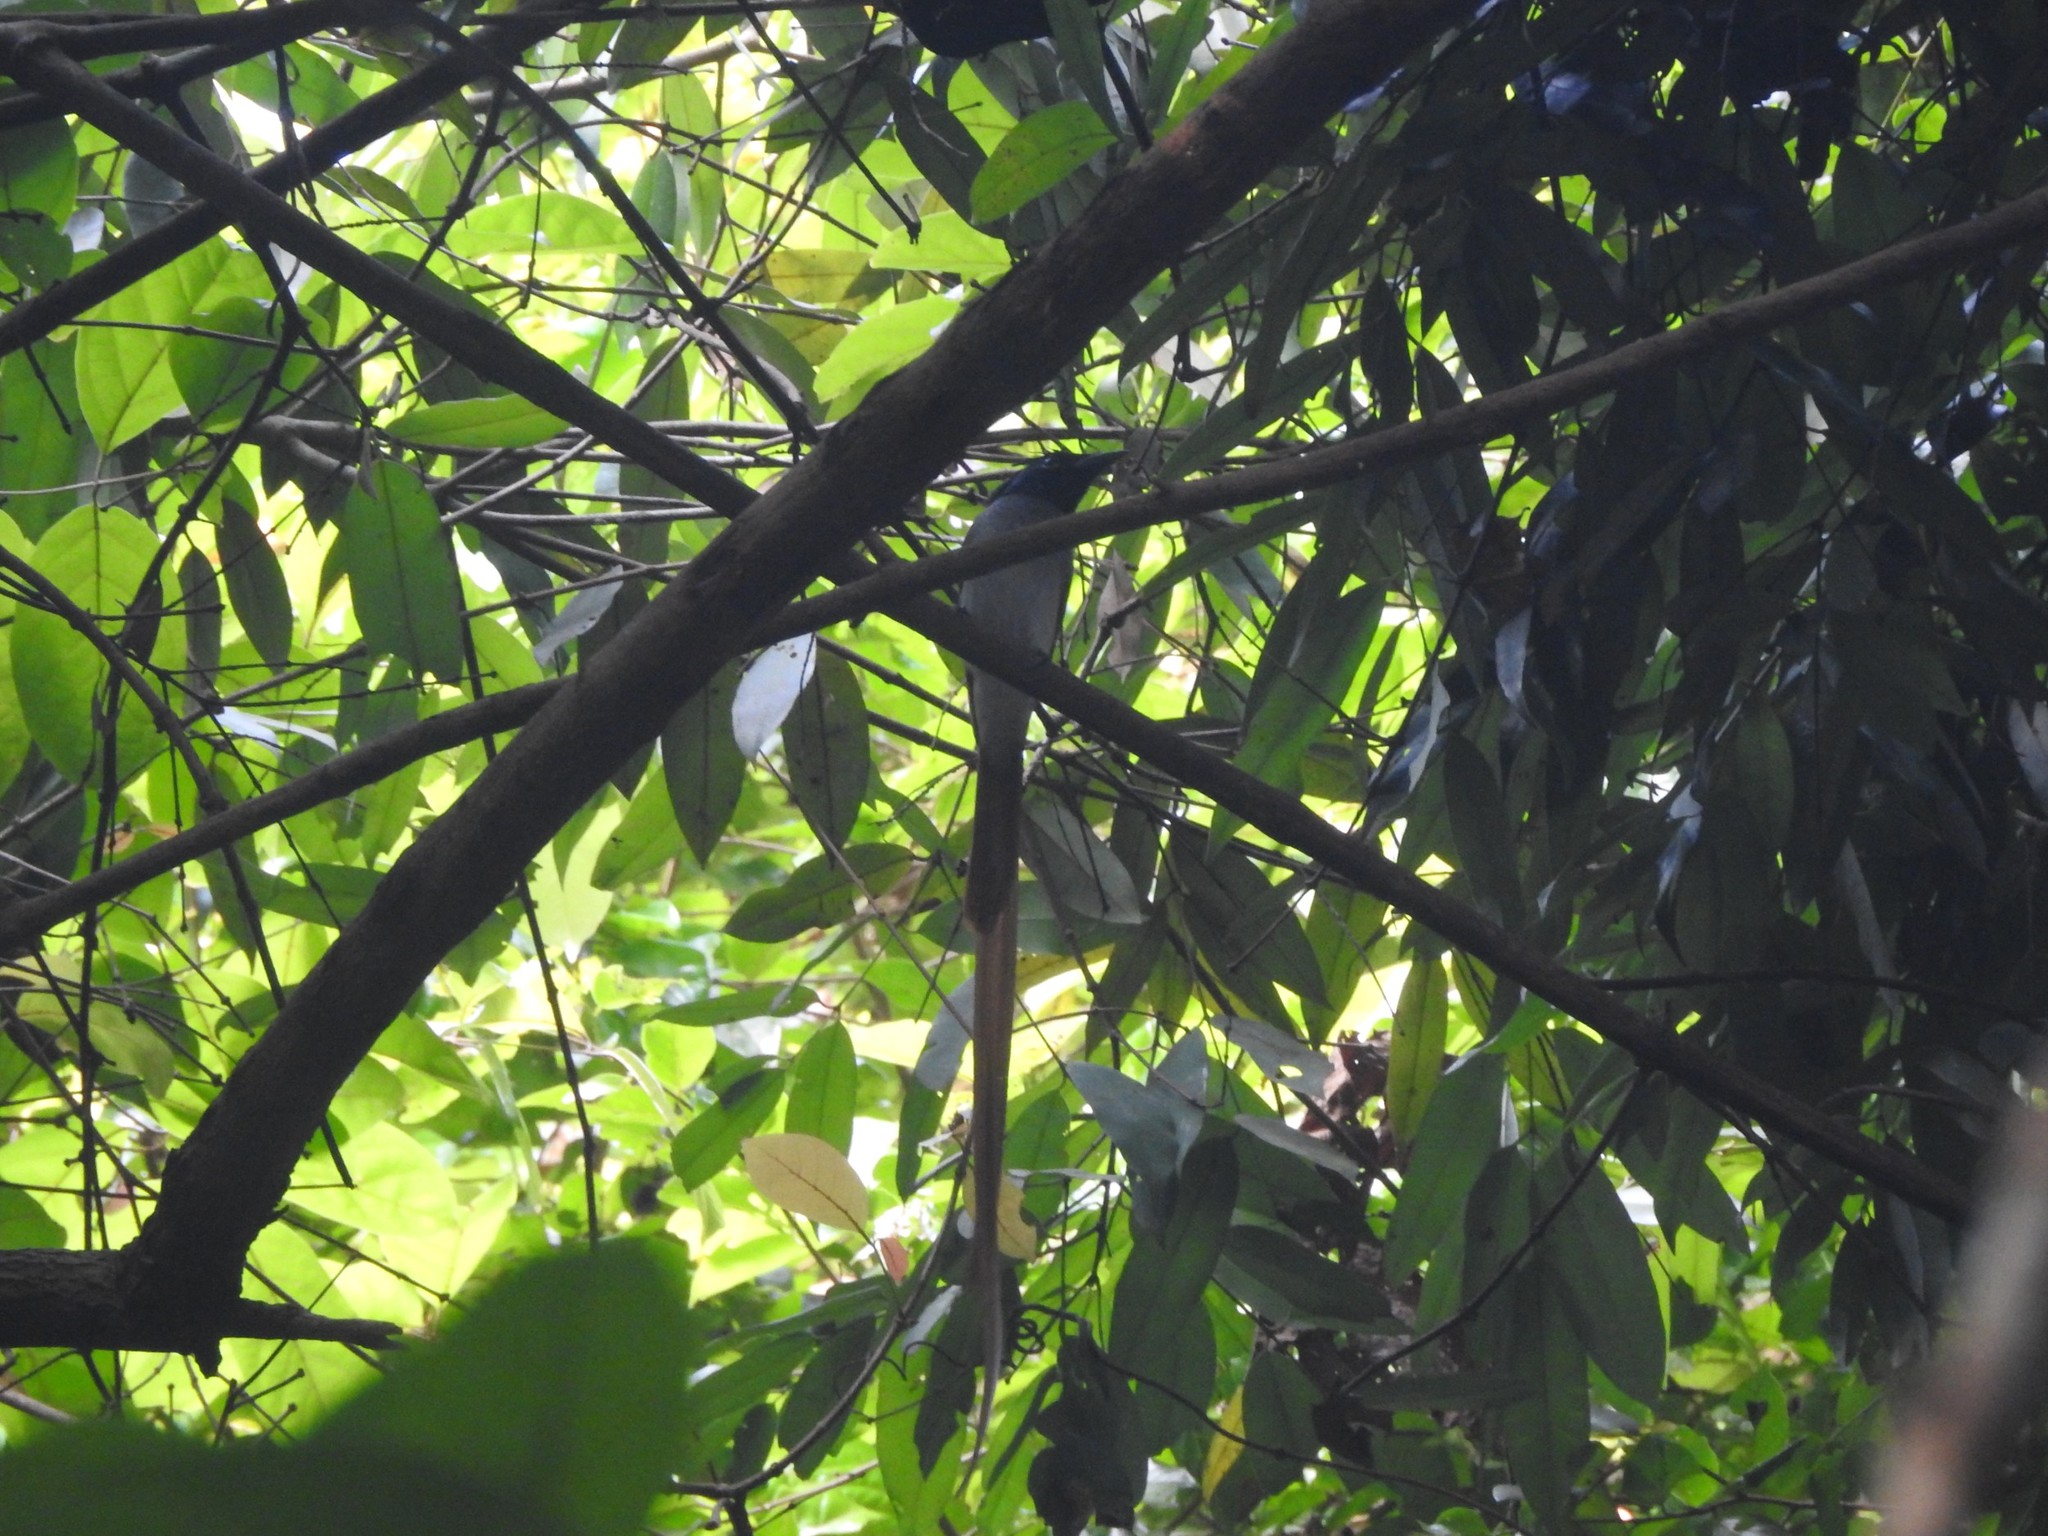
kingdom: Animalia
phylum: Chordata
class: Aves
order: Passeriformes
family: Monarchidae
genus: Terpsiphone
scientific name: Terpsiphone paradisi
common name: Indian paradise flycatcher
